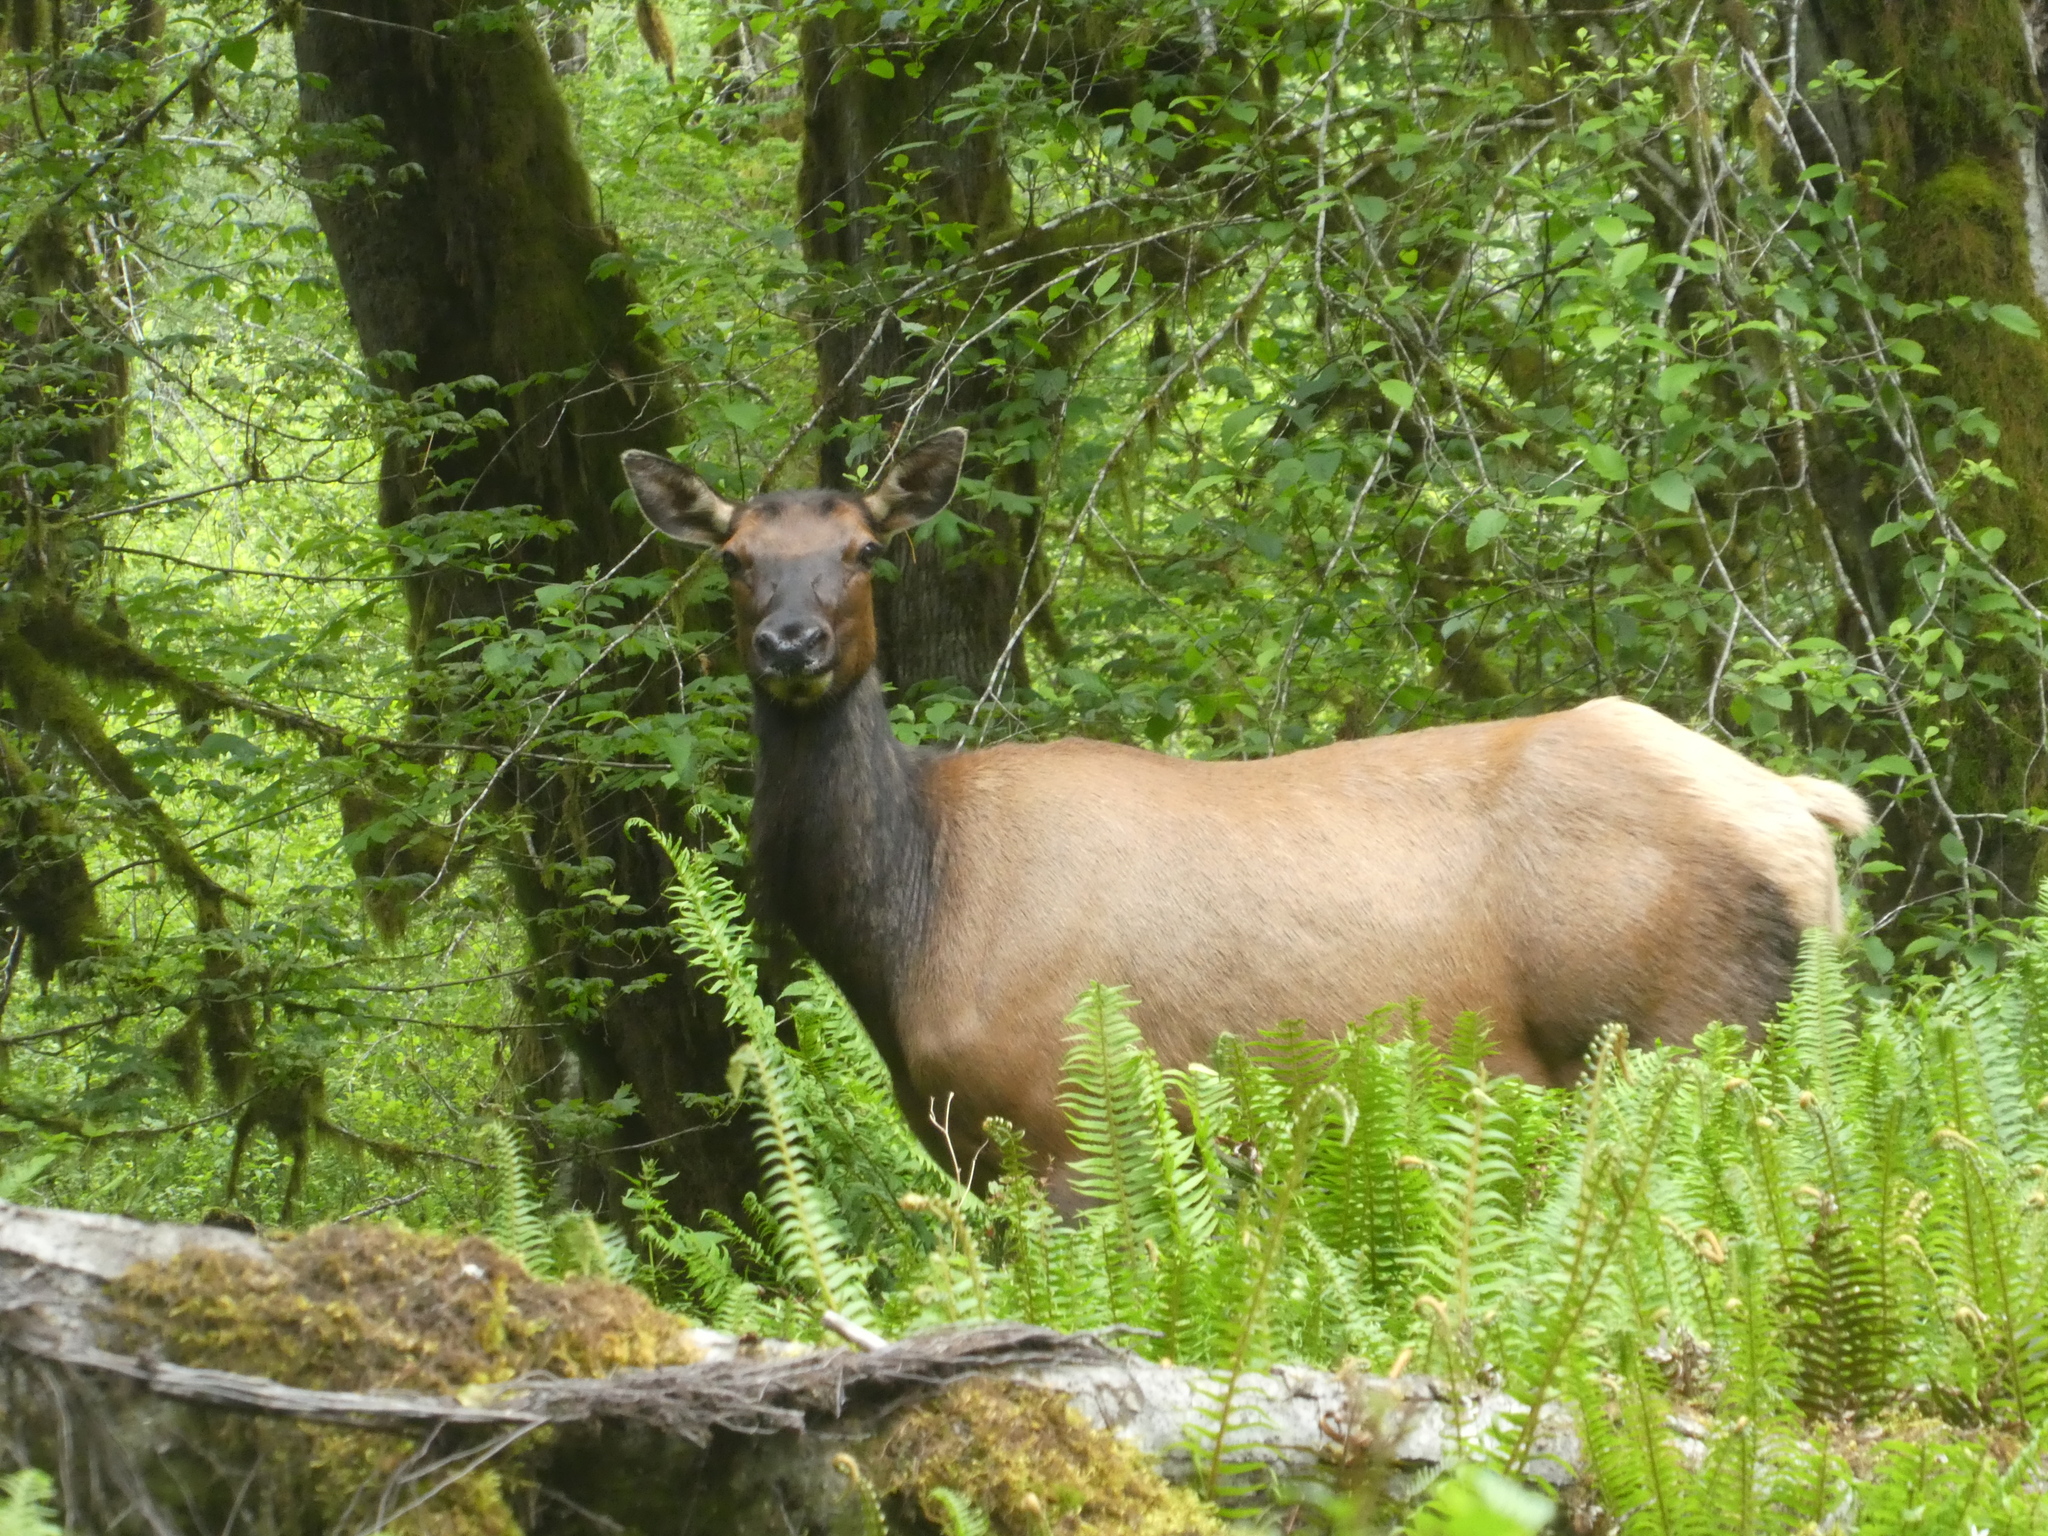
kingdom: Animalia
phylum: Chordata
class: Mammalia
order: Artiodactyla
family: Cervidae
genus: Cervus
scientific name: Cervus elaphus
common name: Red deer
